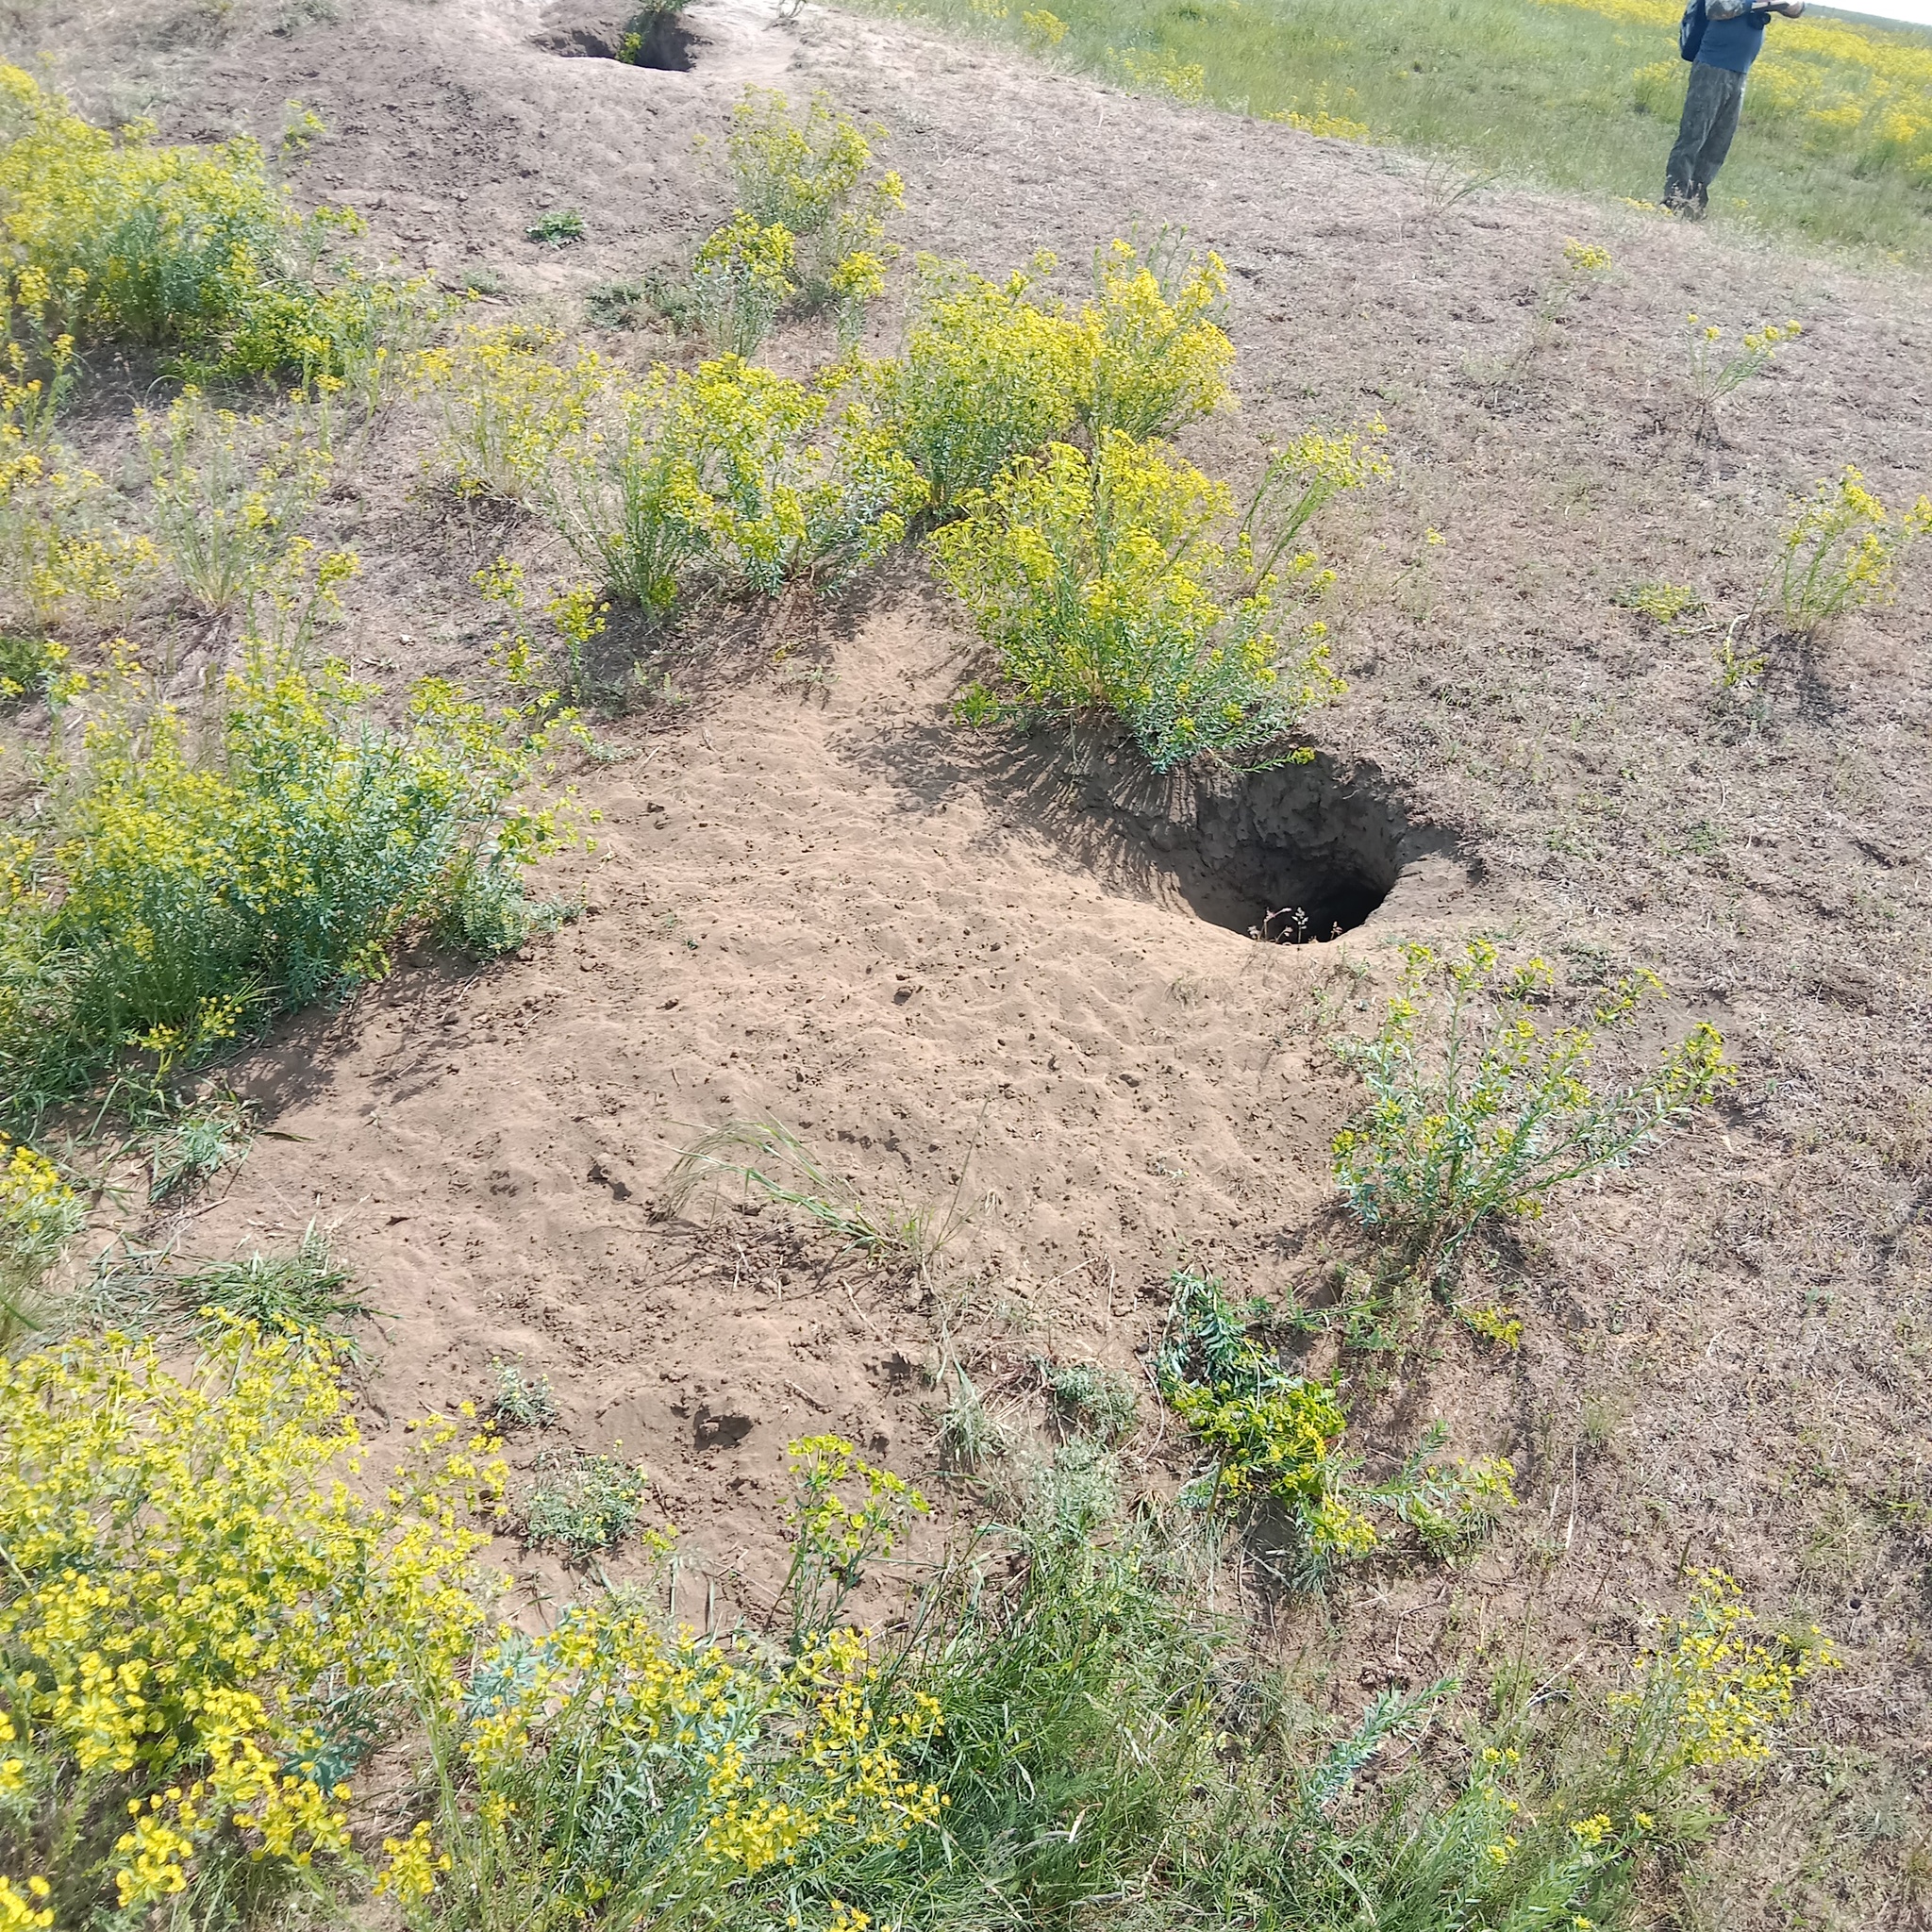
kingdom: Animalia
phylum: Chordata
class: Mammalia
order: Rodentia
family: Sciuridae
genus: Marmota
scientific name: Marmota bobak
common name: Bobak marmot
